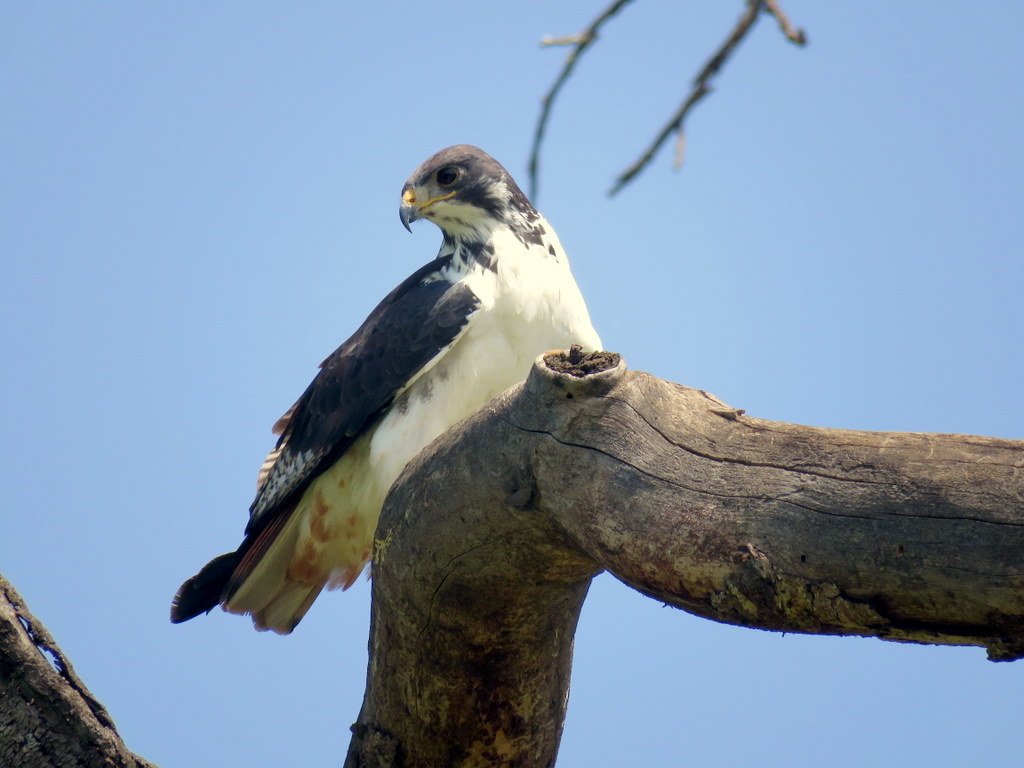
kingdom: Animalia
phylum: Chordata
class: Aves
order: Accipitriformes
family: Accipitridae
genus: Buteo
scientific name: Buteo augur
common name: Augur buzzard
